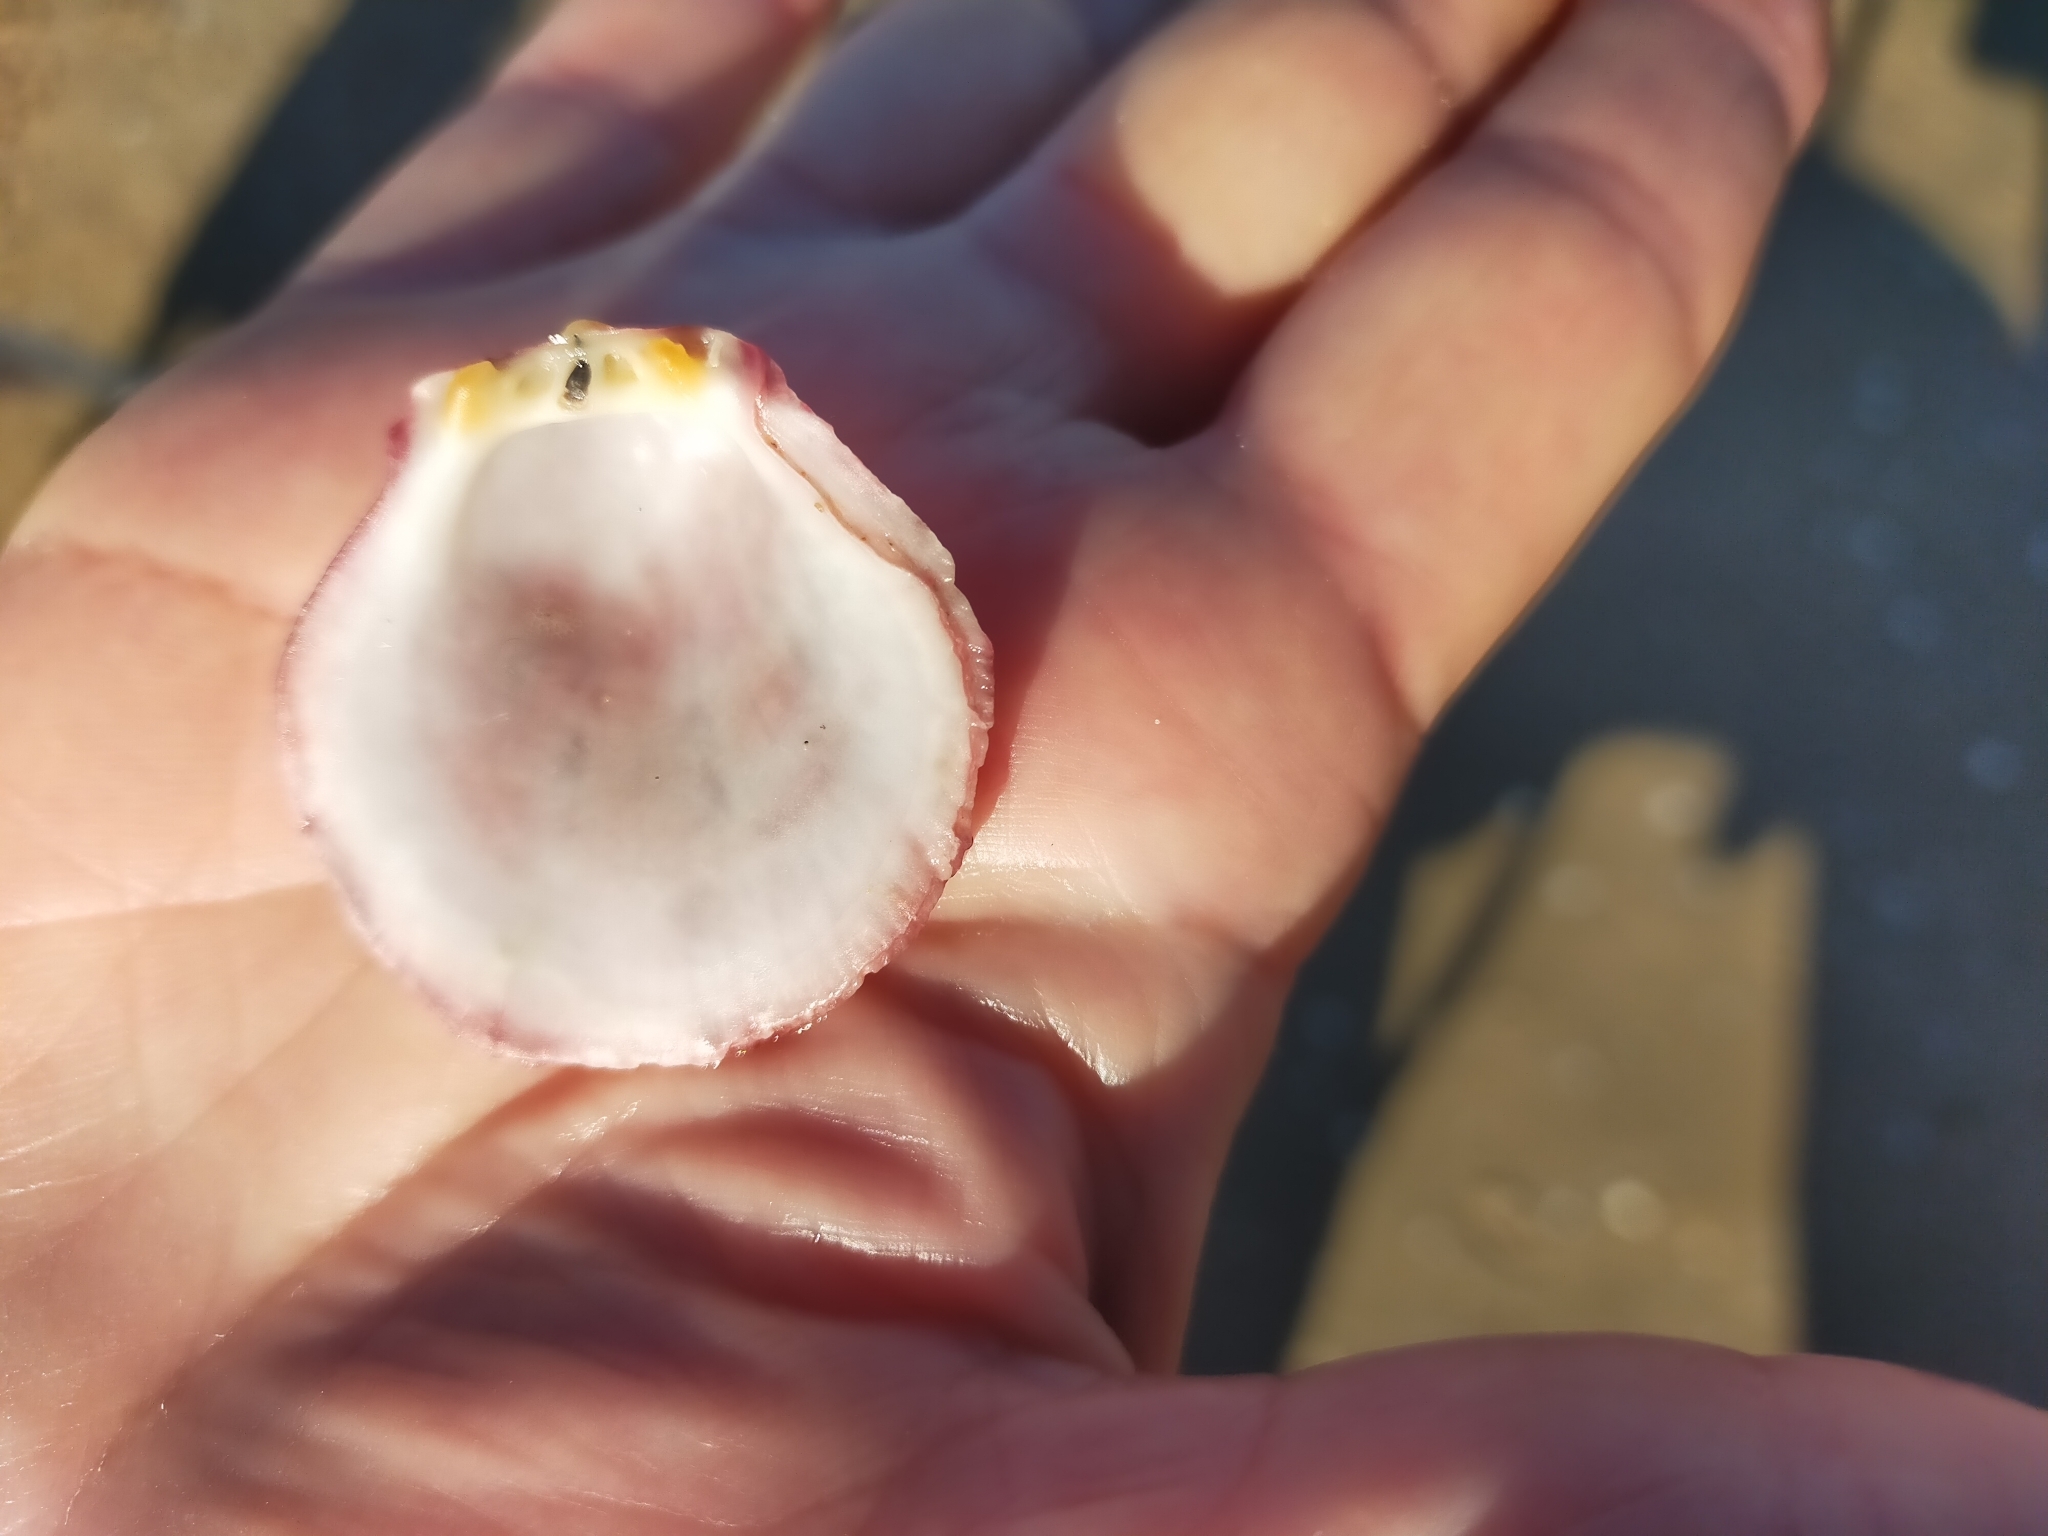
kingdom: Animalia
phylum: Mollusca
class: Bivalvia
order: Pectinida
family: Spondylidae
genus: Spondylus
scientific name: Spondylus gaederopus
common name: European thorny oyster
